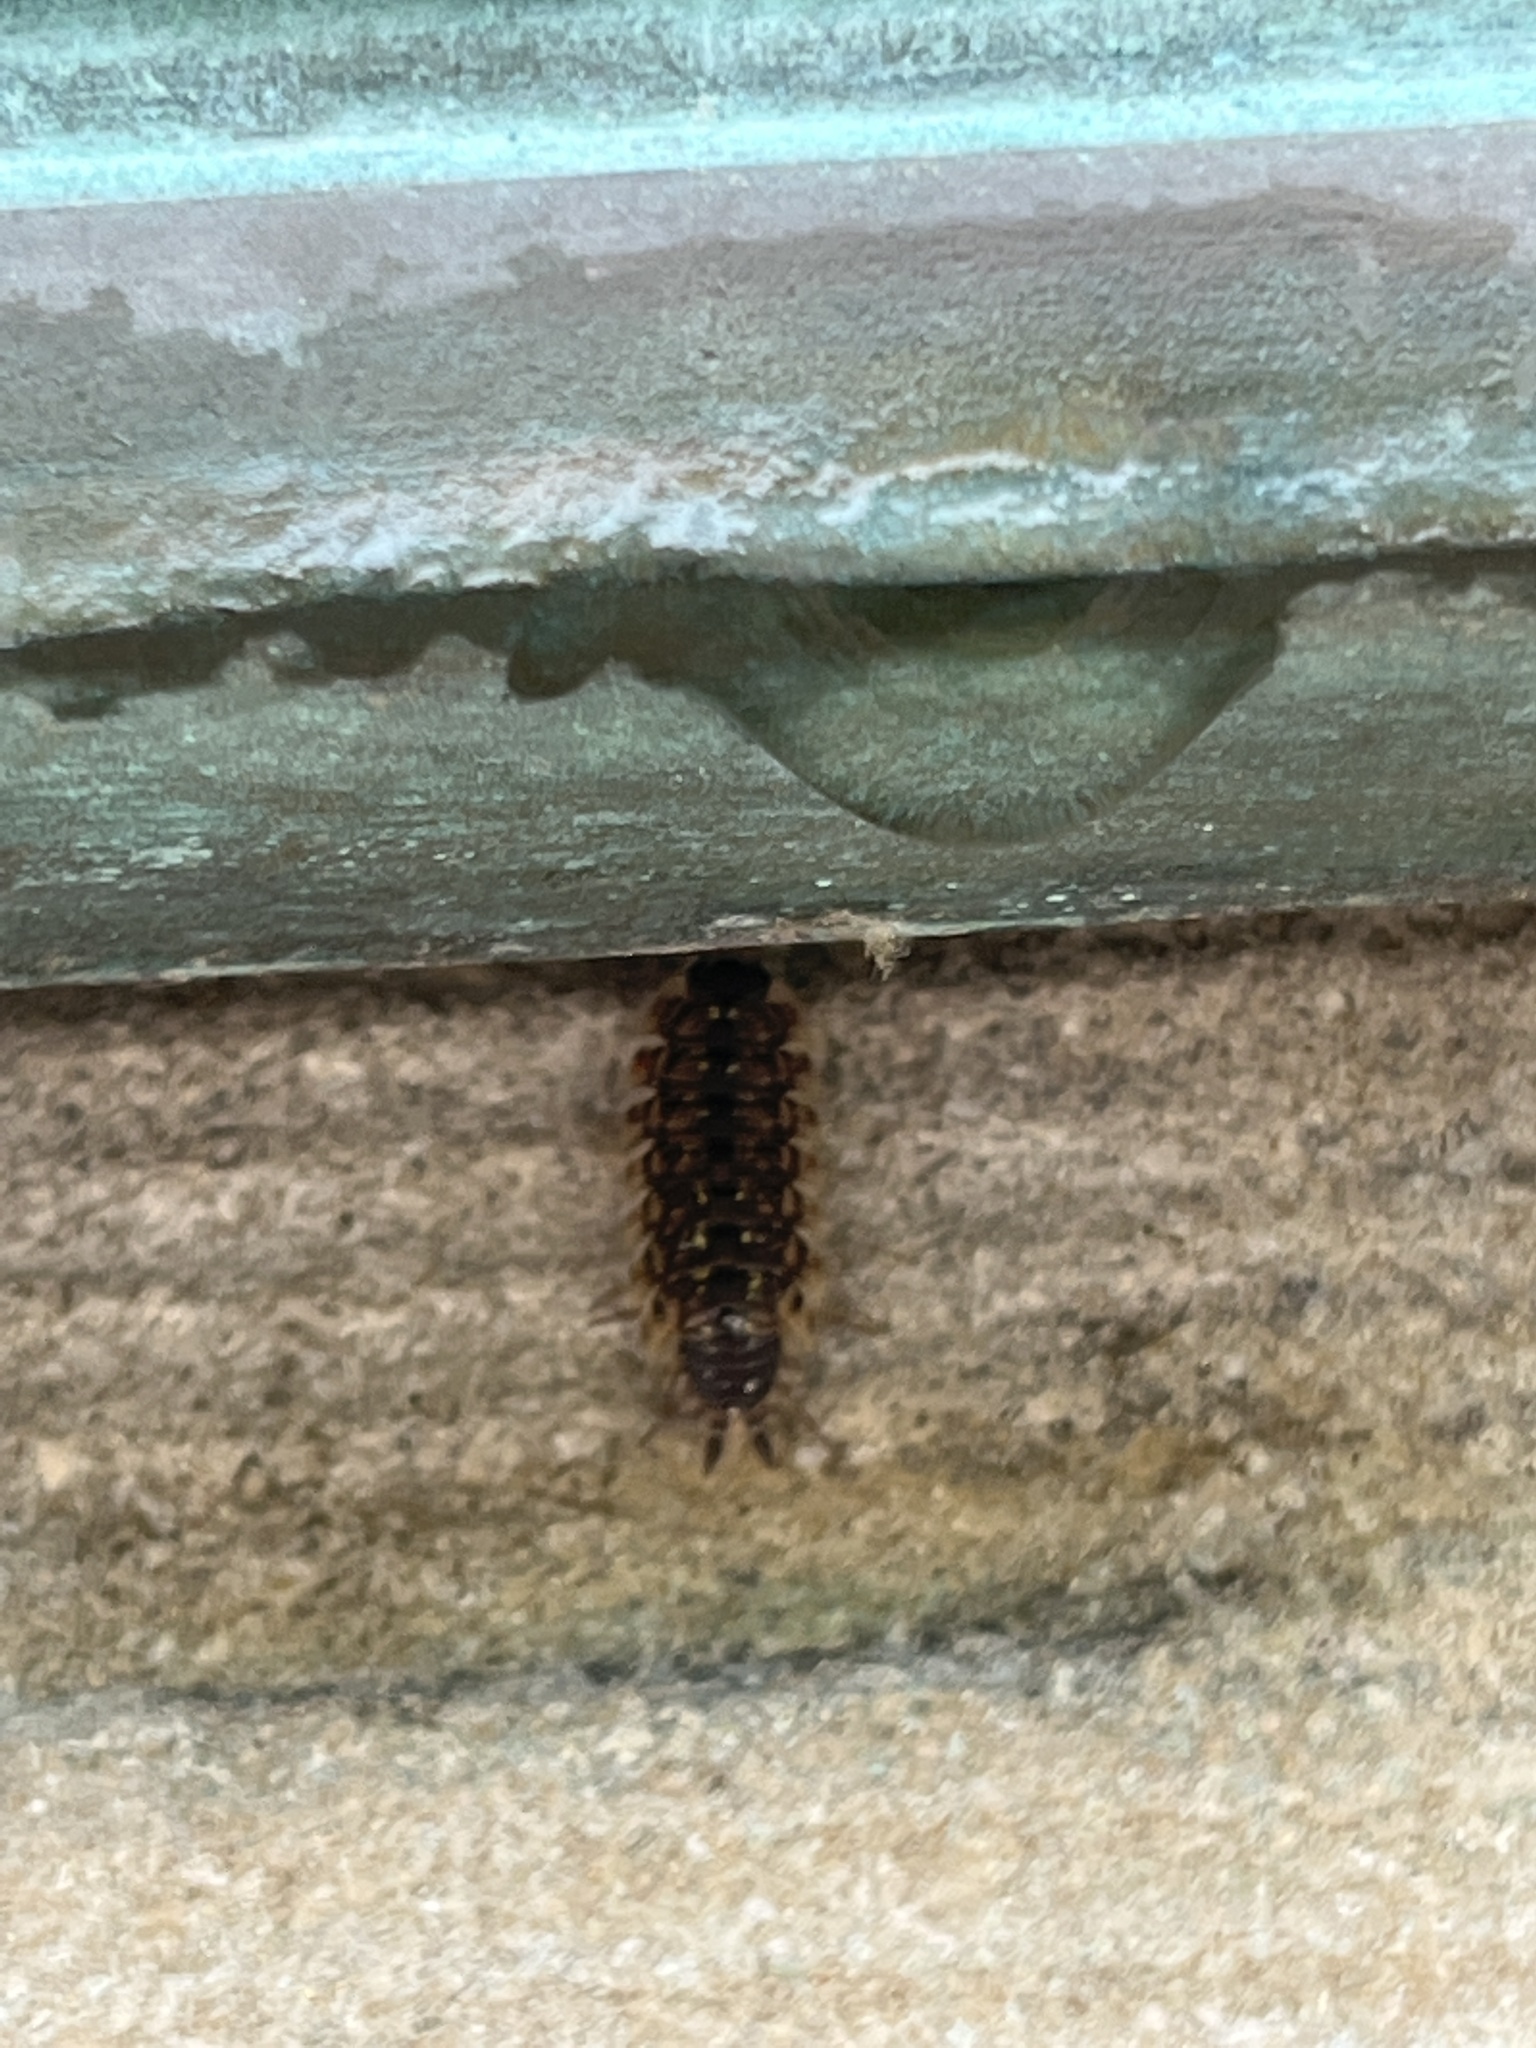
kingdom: Animalia
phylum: Arthropoda
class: Malacostraca
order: Isopoda
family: Porcellionidae
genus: Porcellio
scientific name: Porcellio spinicornis
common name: Painted woodlouse
